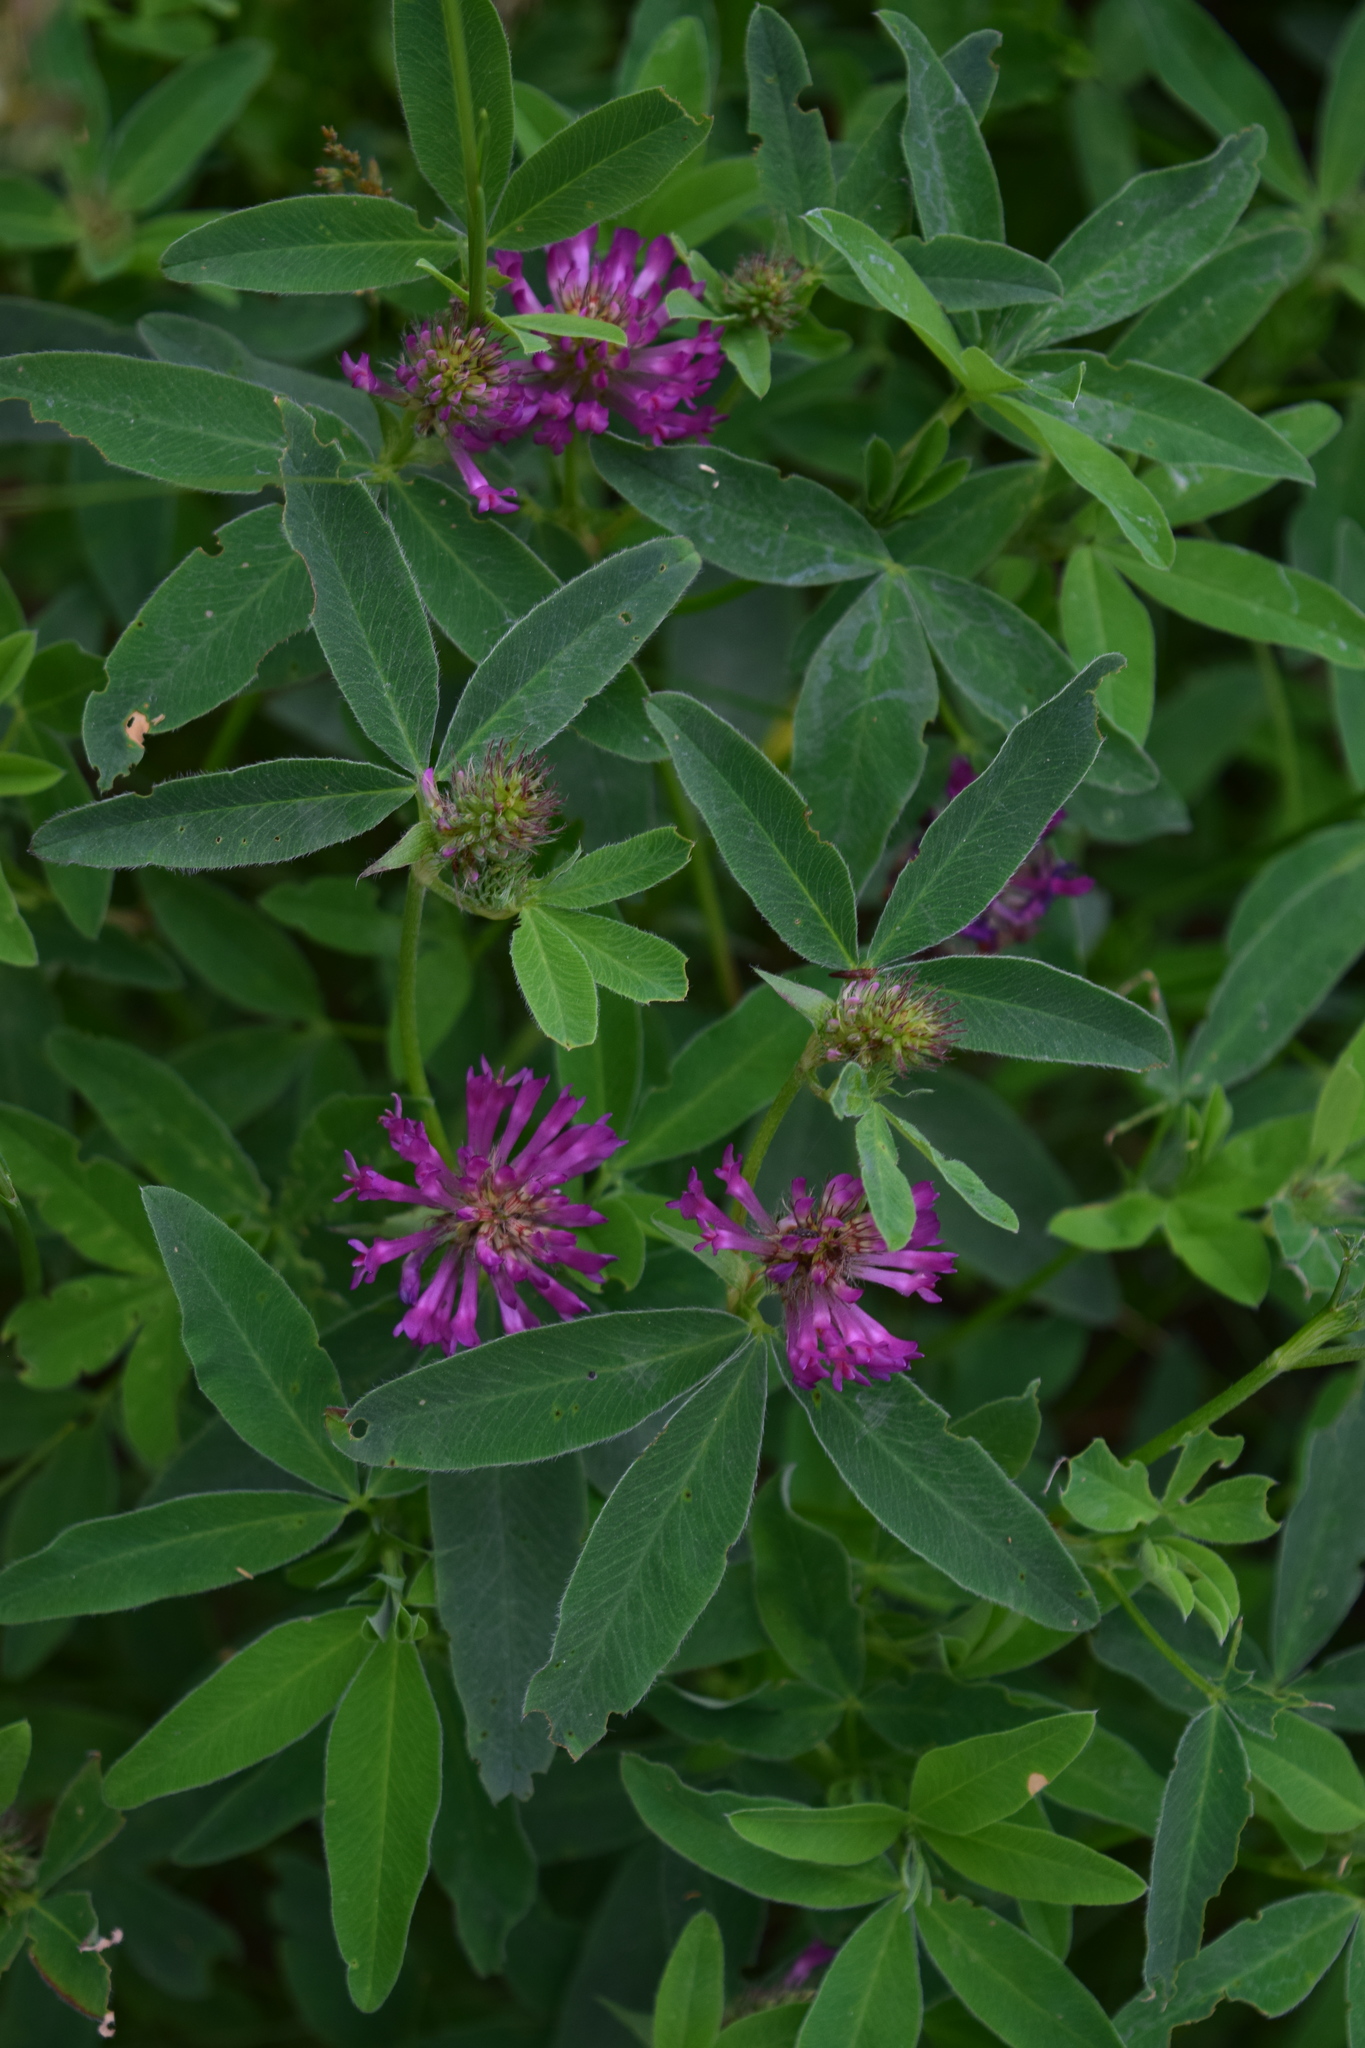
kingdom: Plantae
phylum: Tracheophyta
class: Magnoliopsida
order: Fabales
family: Fabaceae
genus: Trifolium
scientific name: Trifolium medium
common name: Zigzag clover
